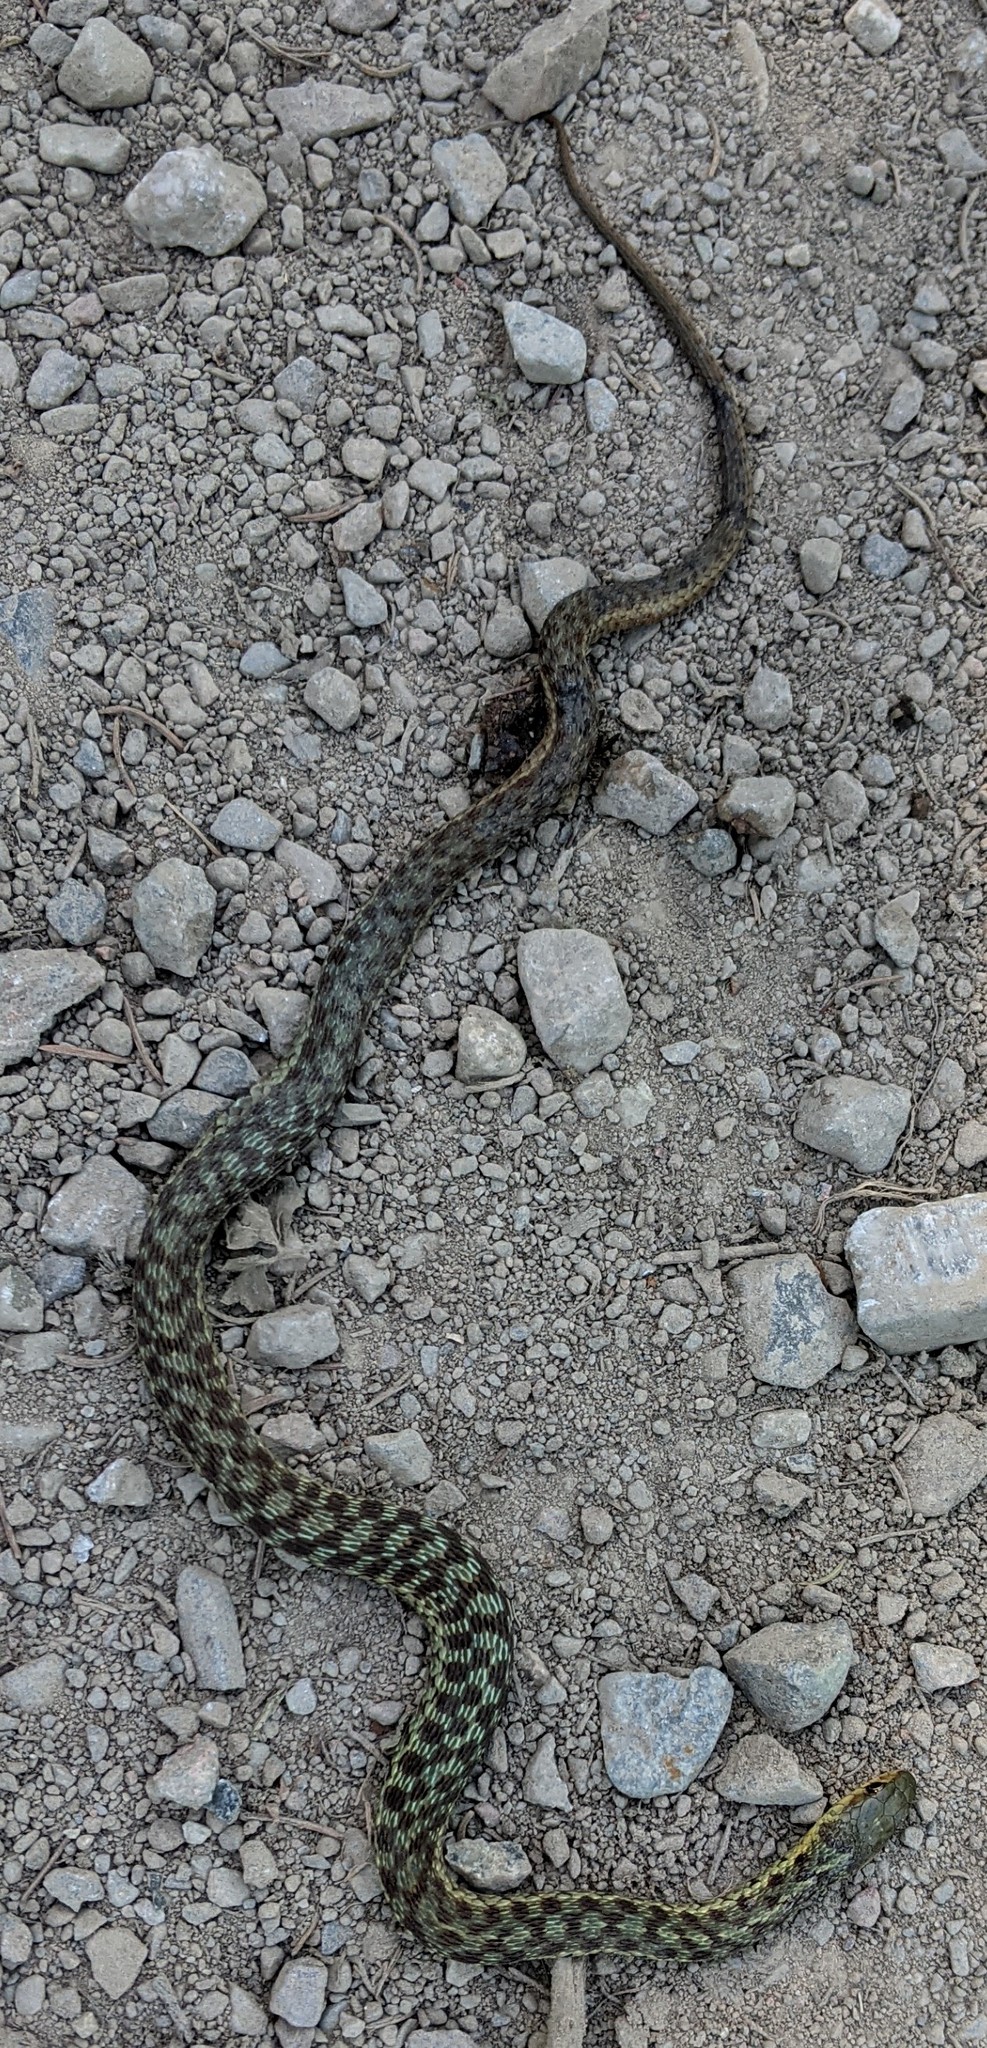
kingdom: Animalia
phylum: Chordata
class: Squamata
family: Colubridae
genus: Thamnophis
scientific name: Thamnophis sirtalis
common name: Common garter snake
